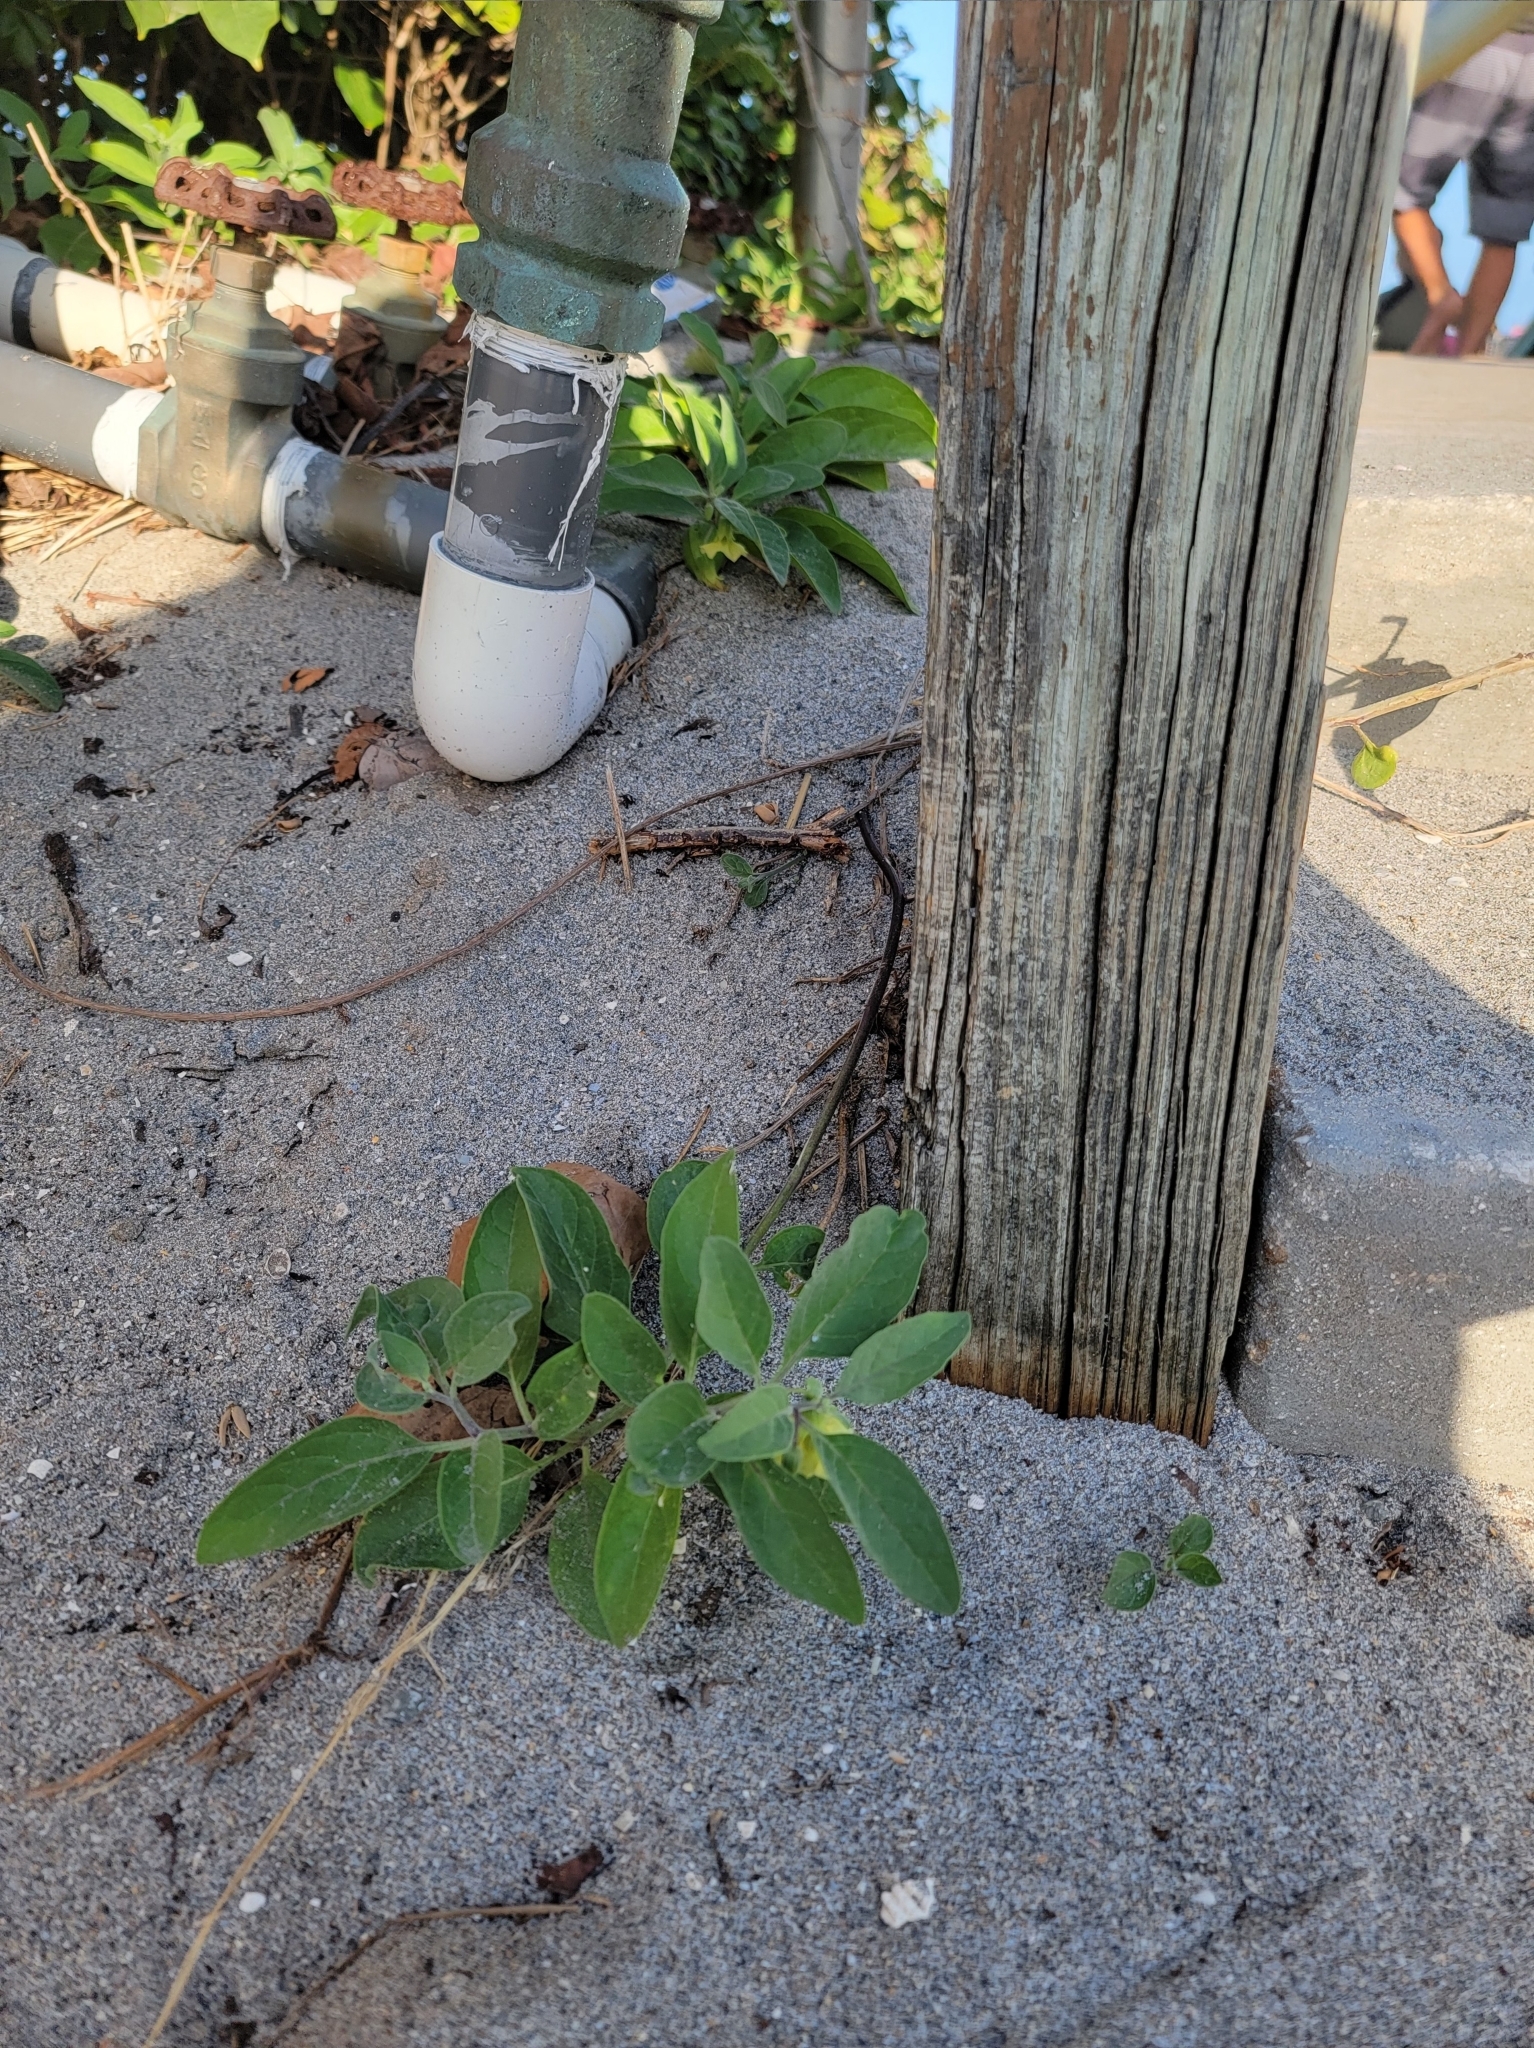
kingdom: Plantae
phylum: Tracheophyta
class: Magnoliopsida
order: Solanales
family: Solanaceae
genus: Physalis
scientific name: Physalis walteri
